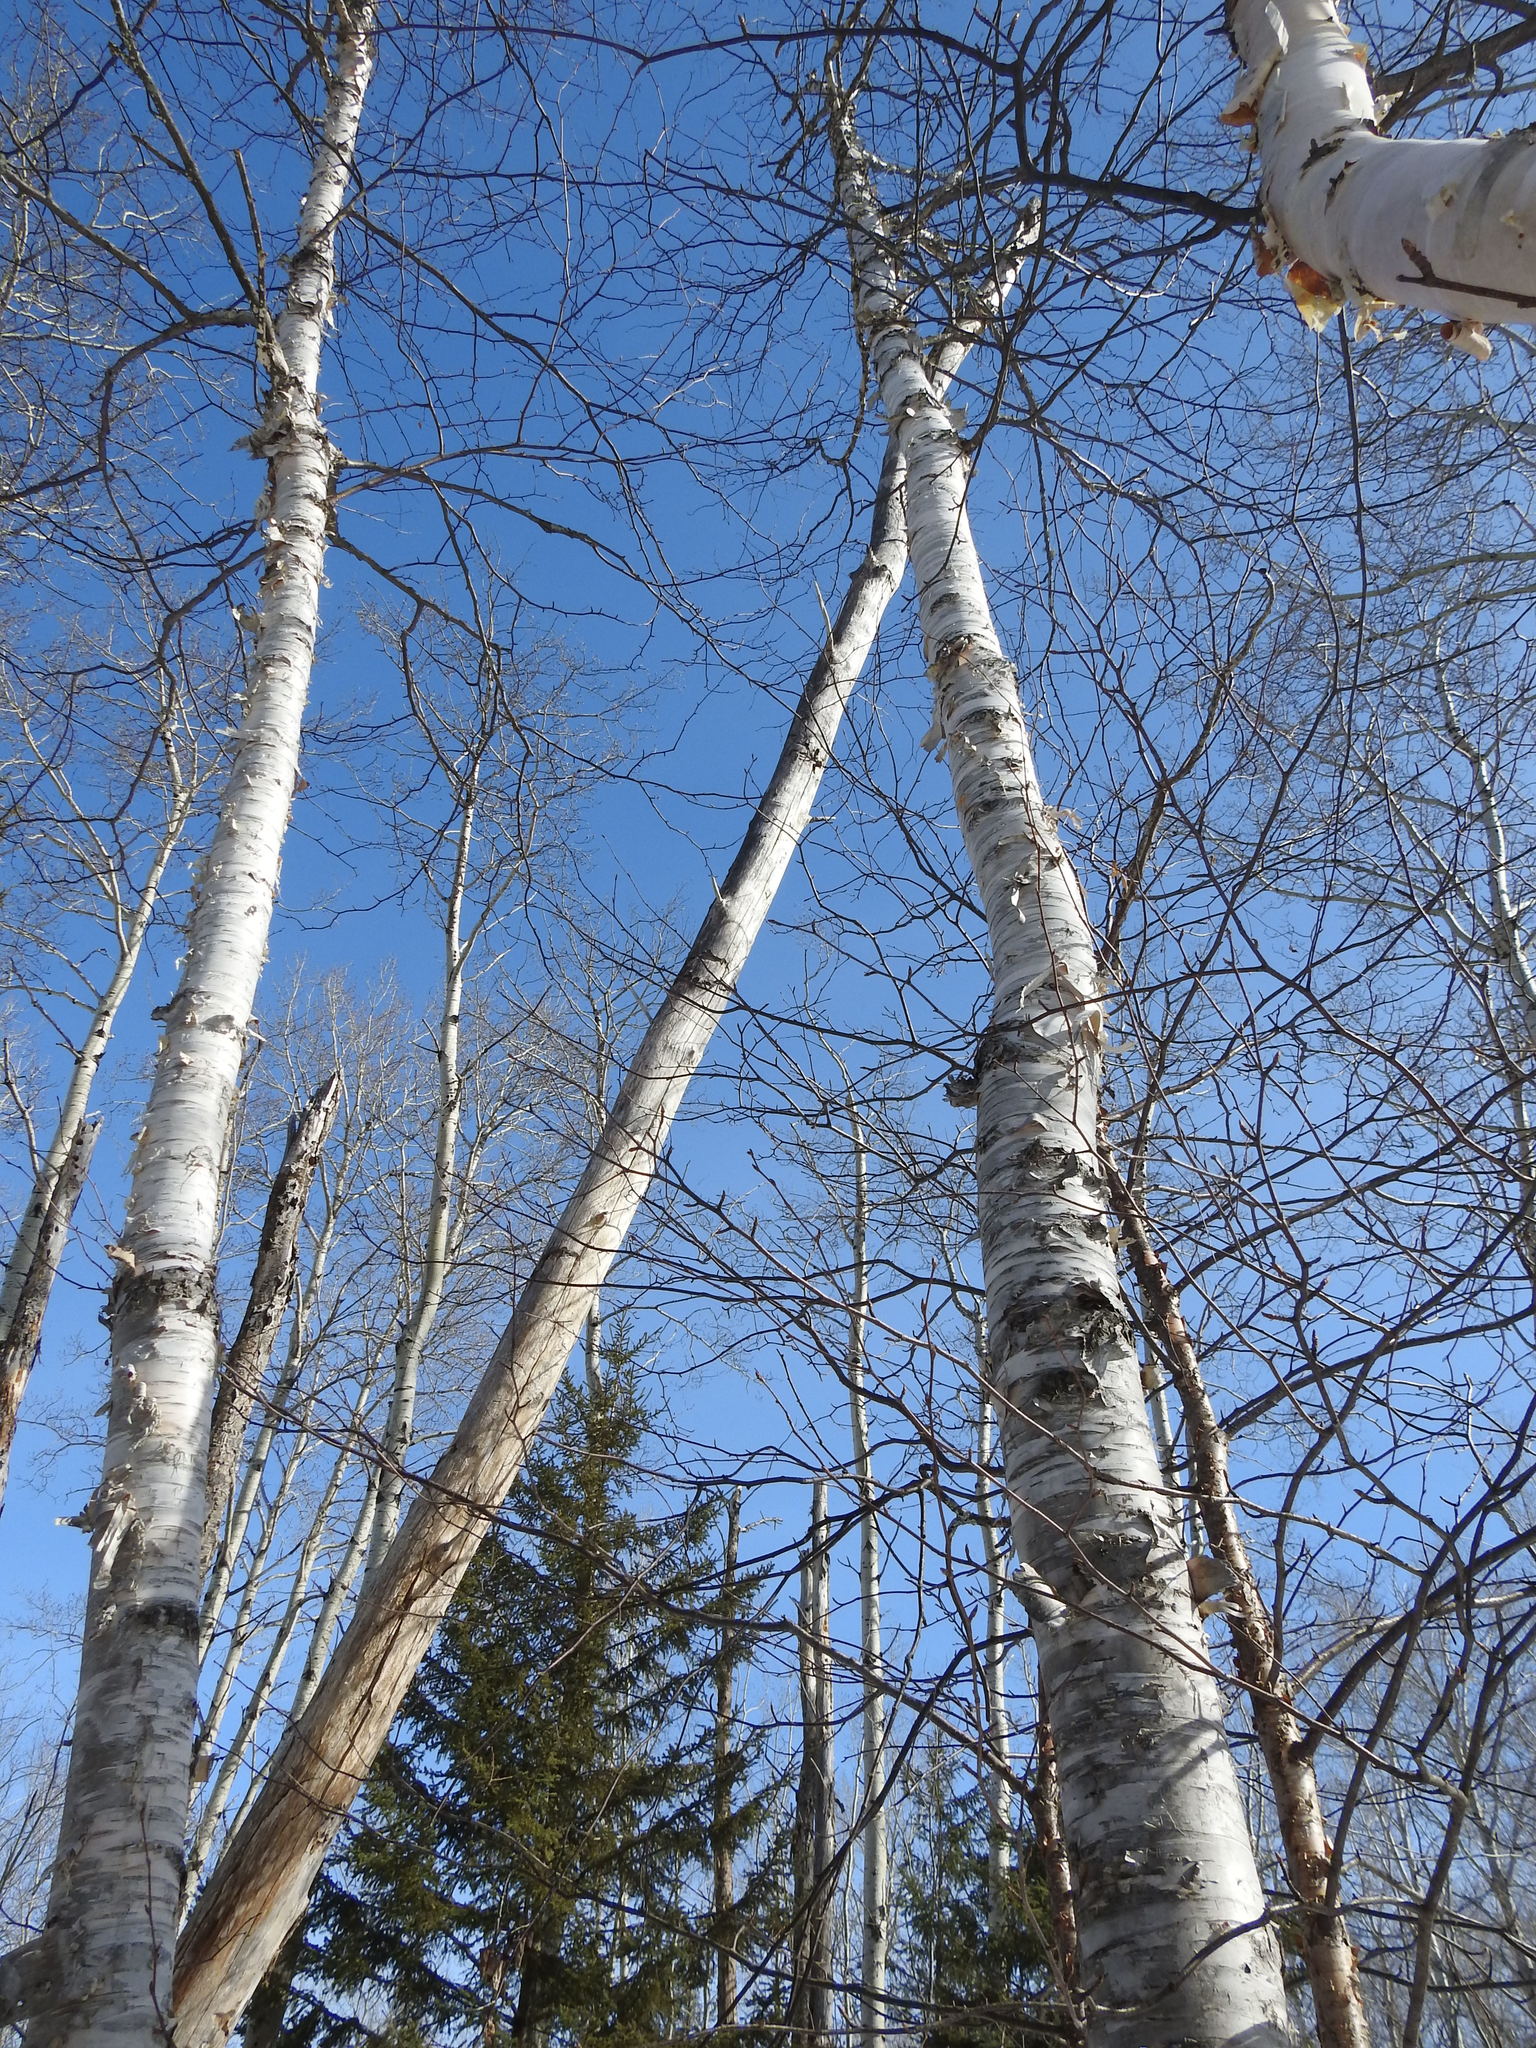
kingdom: Plantae
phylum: Tracheophyta
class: Magnoliopsida
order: Fagales
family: Betulaceae
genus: Betula
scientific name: Betula papyrifera
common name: Paper birch
